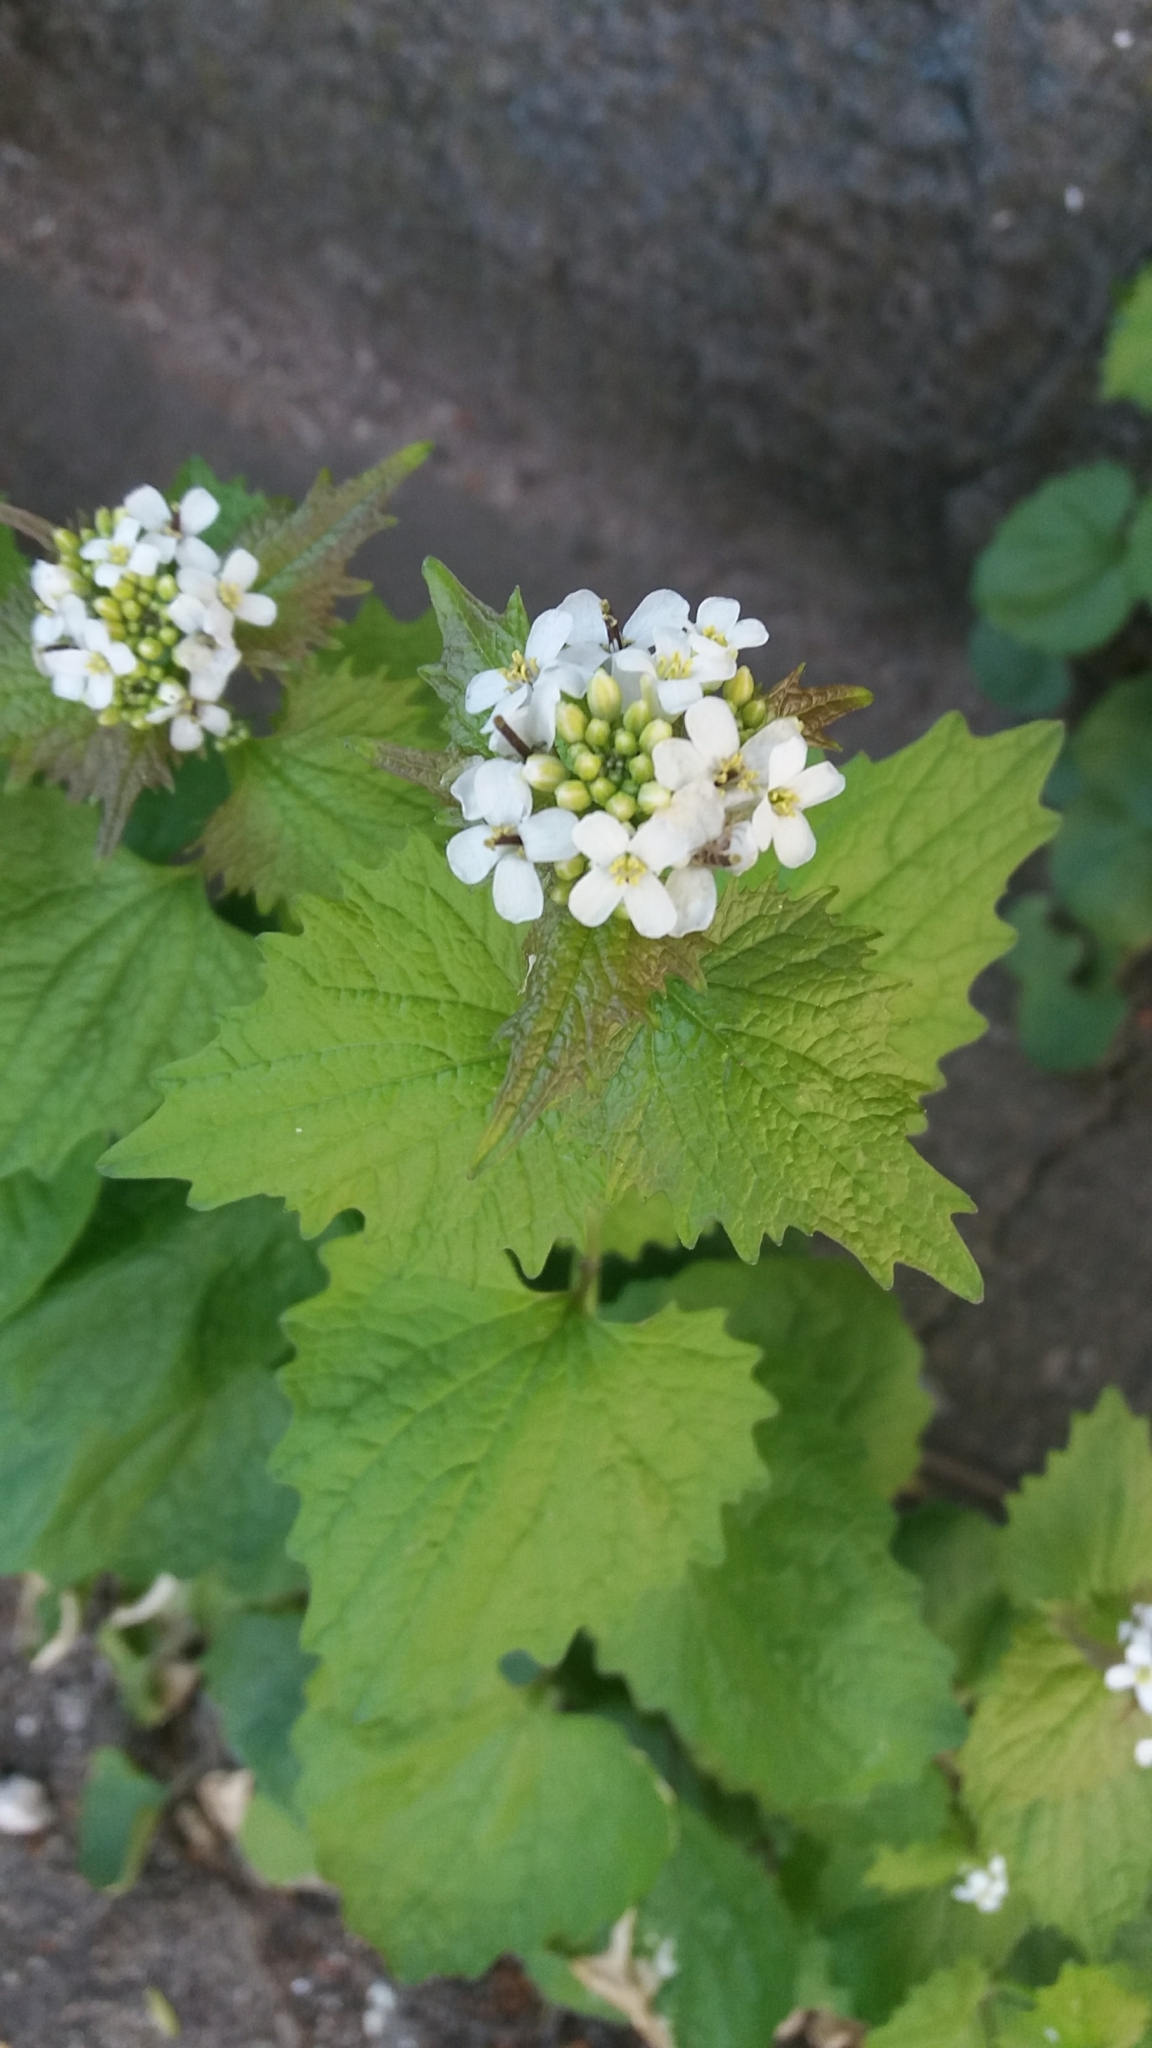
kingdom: Plantae
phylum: Tracheophyta
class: Magnoliopsida
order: Brassicales
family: Brassicaceae
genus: Alliaria
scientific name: Alliaria petiolata
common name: Garlic mustard
